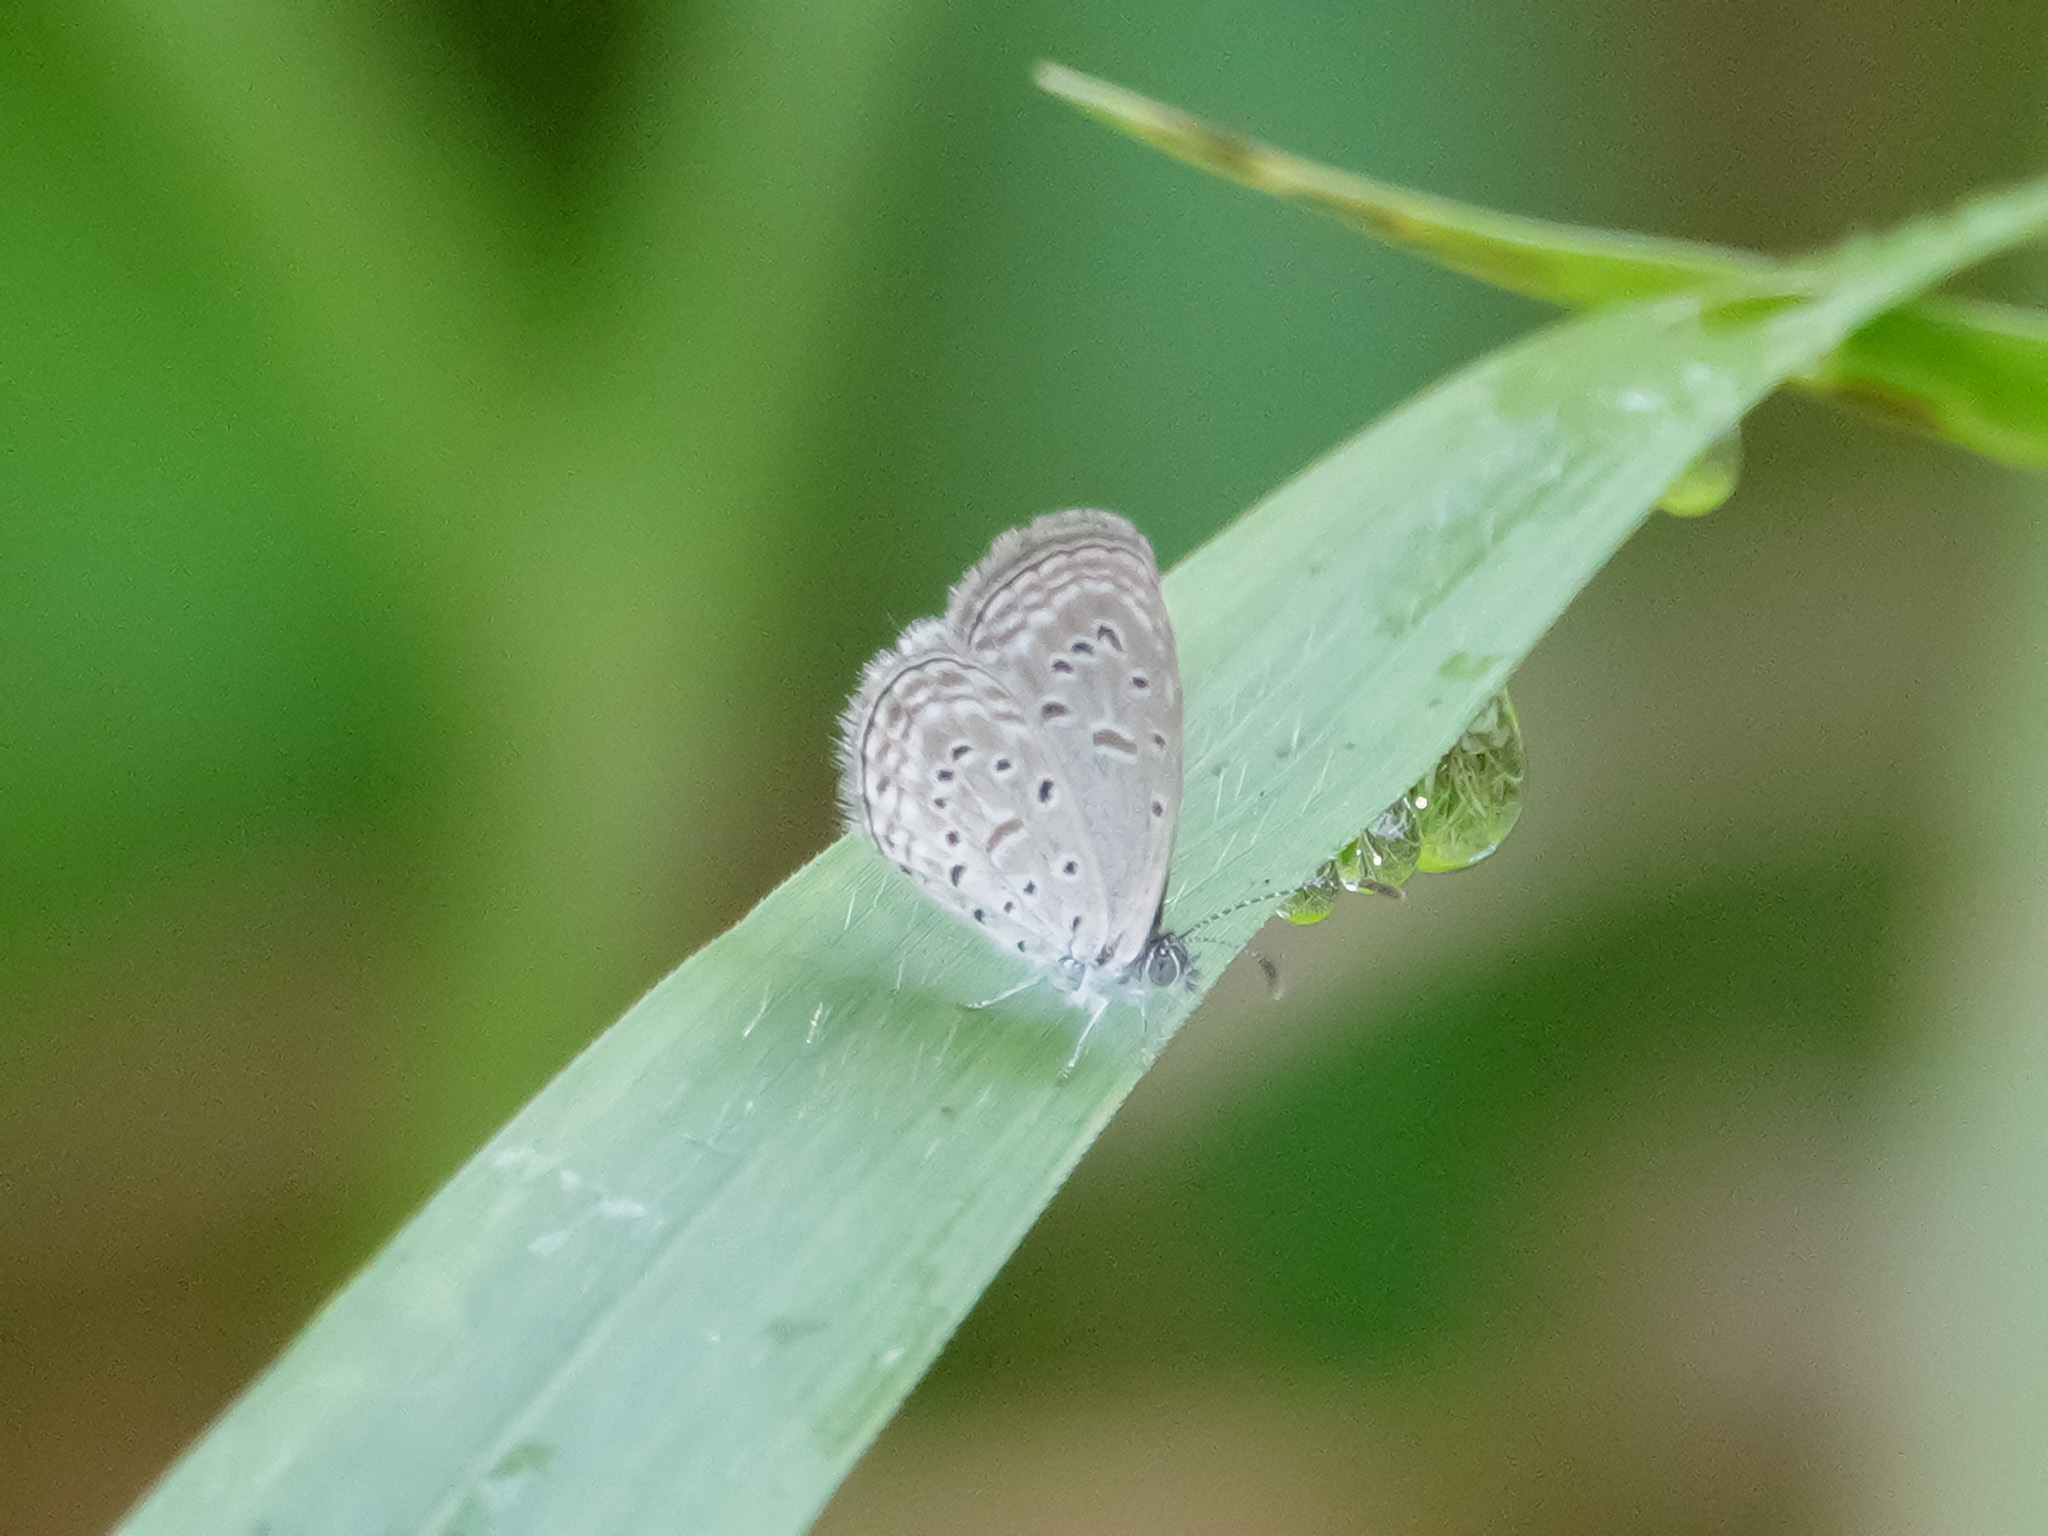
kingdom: Animalia
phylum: Arthropoda
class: Insecta
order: Lepidoptera
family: Lycaenidae
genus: Zizula
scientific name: Zizula hylax
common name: Gaika blue
